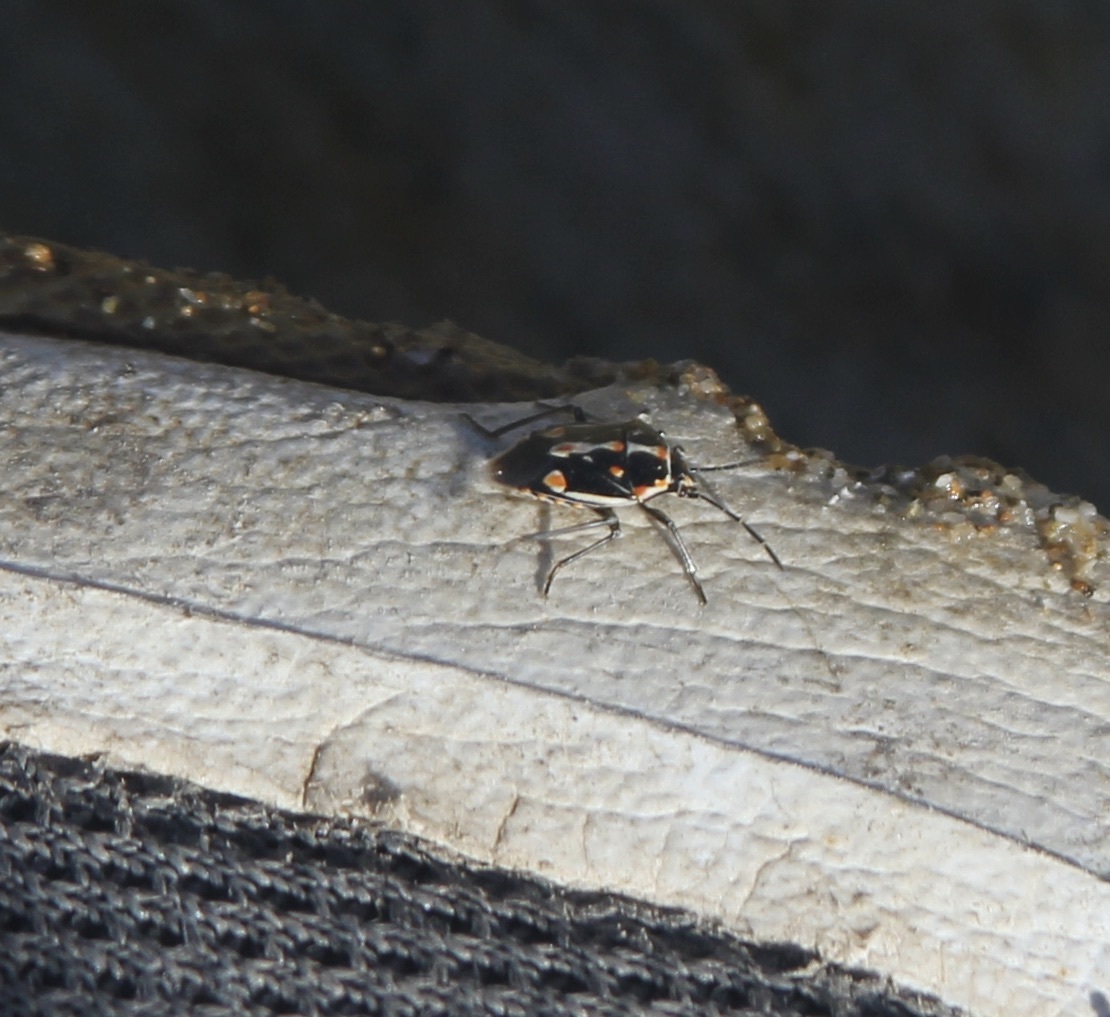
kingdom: Animalia
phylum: Arthropoda
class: Insecta
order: Hemiptera
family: Pentatomidae
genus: Bagrada
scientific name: Bagrada hilaris
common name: Bagrada bug
